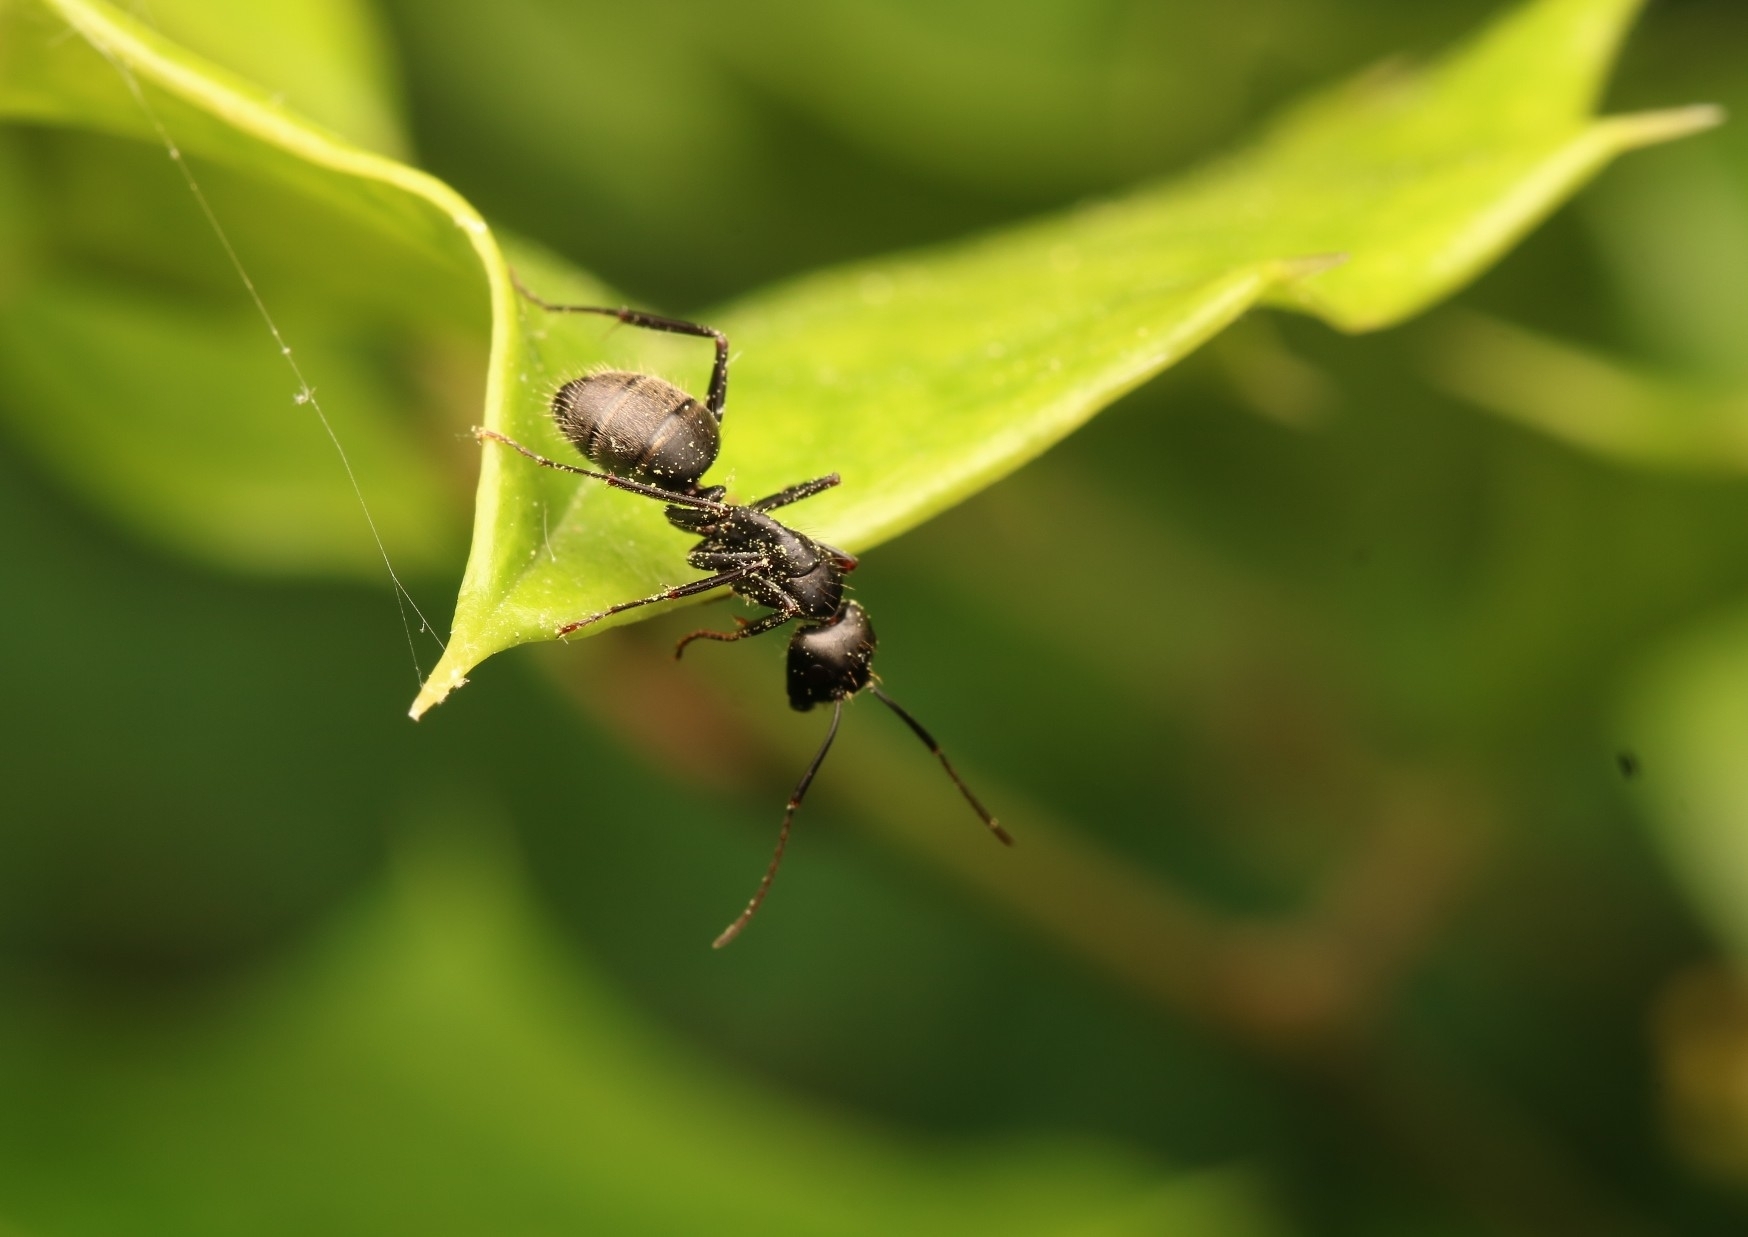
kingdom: Animalia
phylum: Arthropoda
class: Insecta
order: Hymenoptera
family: Formicidae
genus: Camponotus
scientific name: Camponotus pennsylvanicus
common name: Black carpenter ant
